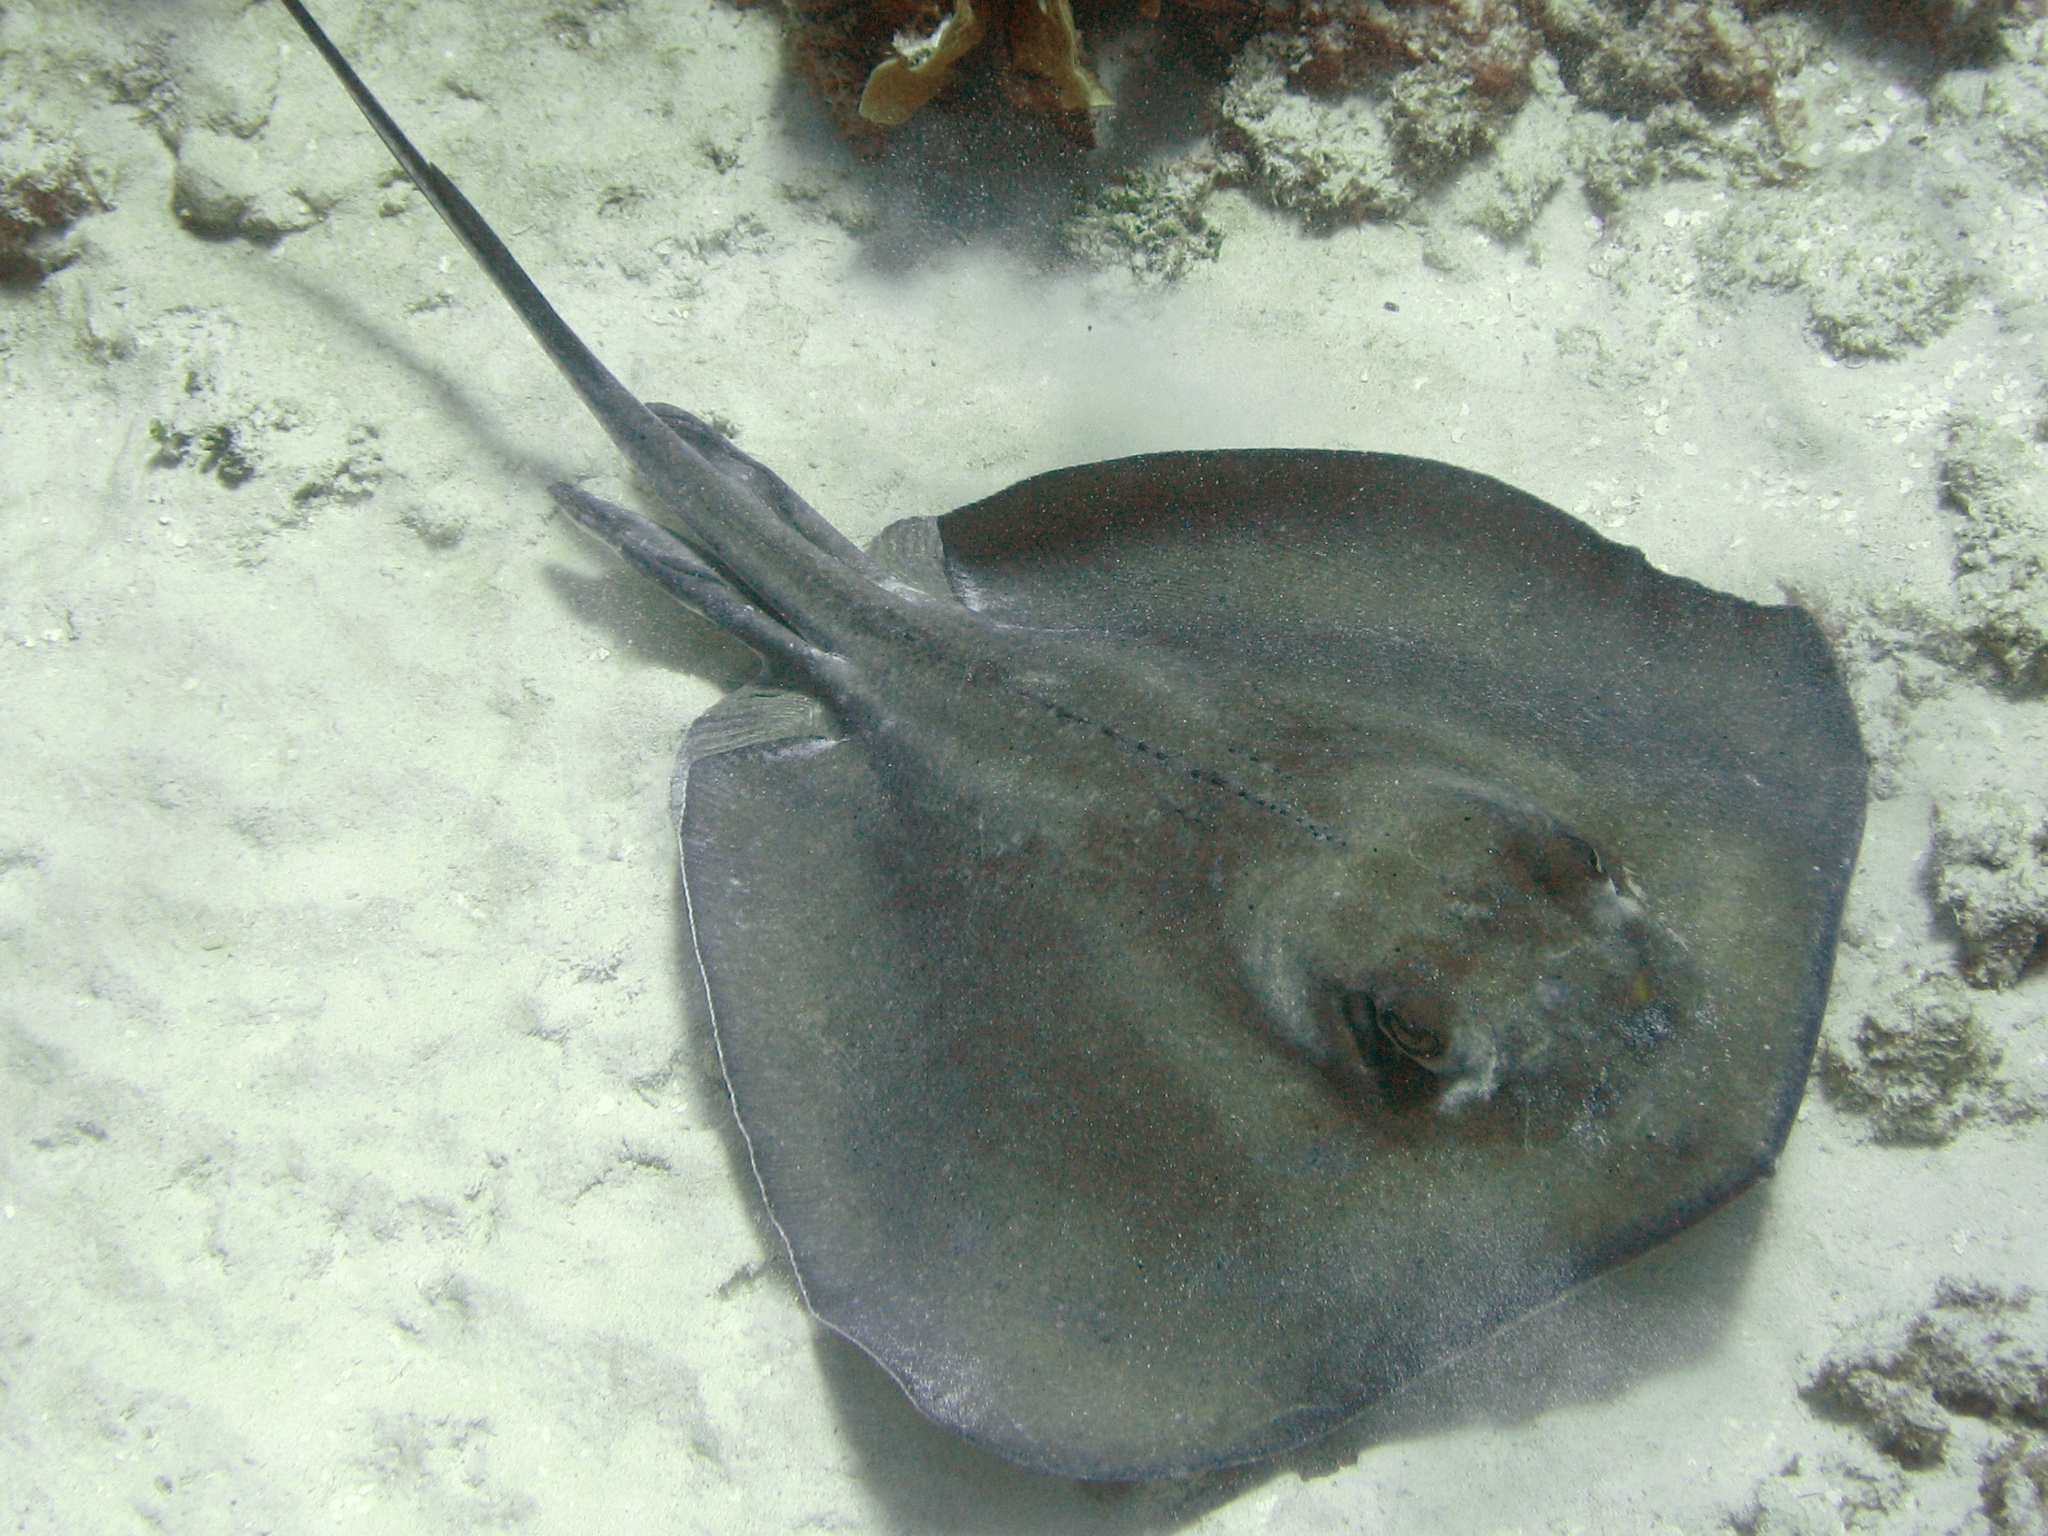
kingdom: Animalia
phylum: Chordata
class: Elasmobranchii
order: Myliobatiformes
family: Dasyatidae
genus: Hypanus
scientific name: Hypanus americanus
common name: Southern stingray
